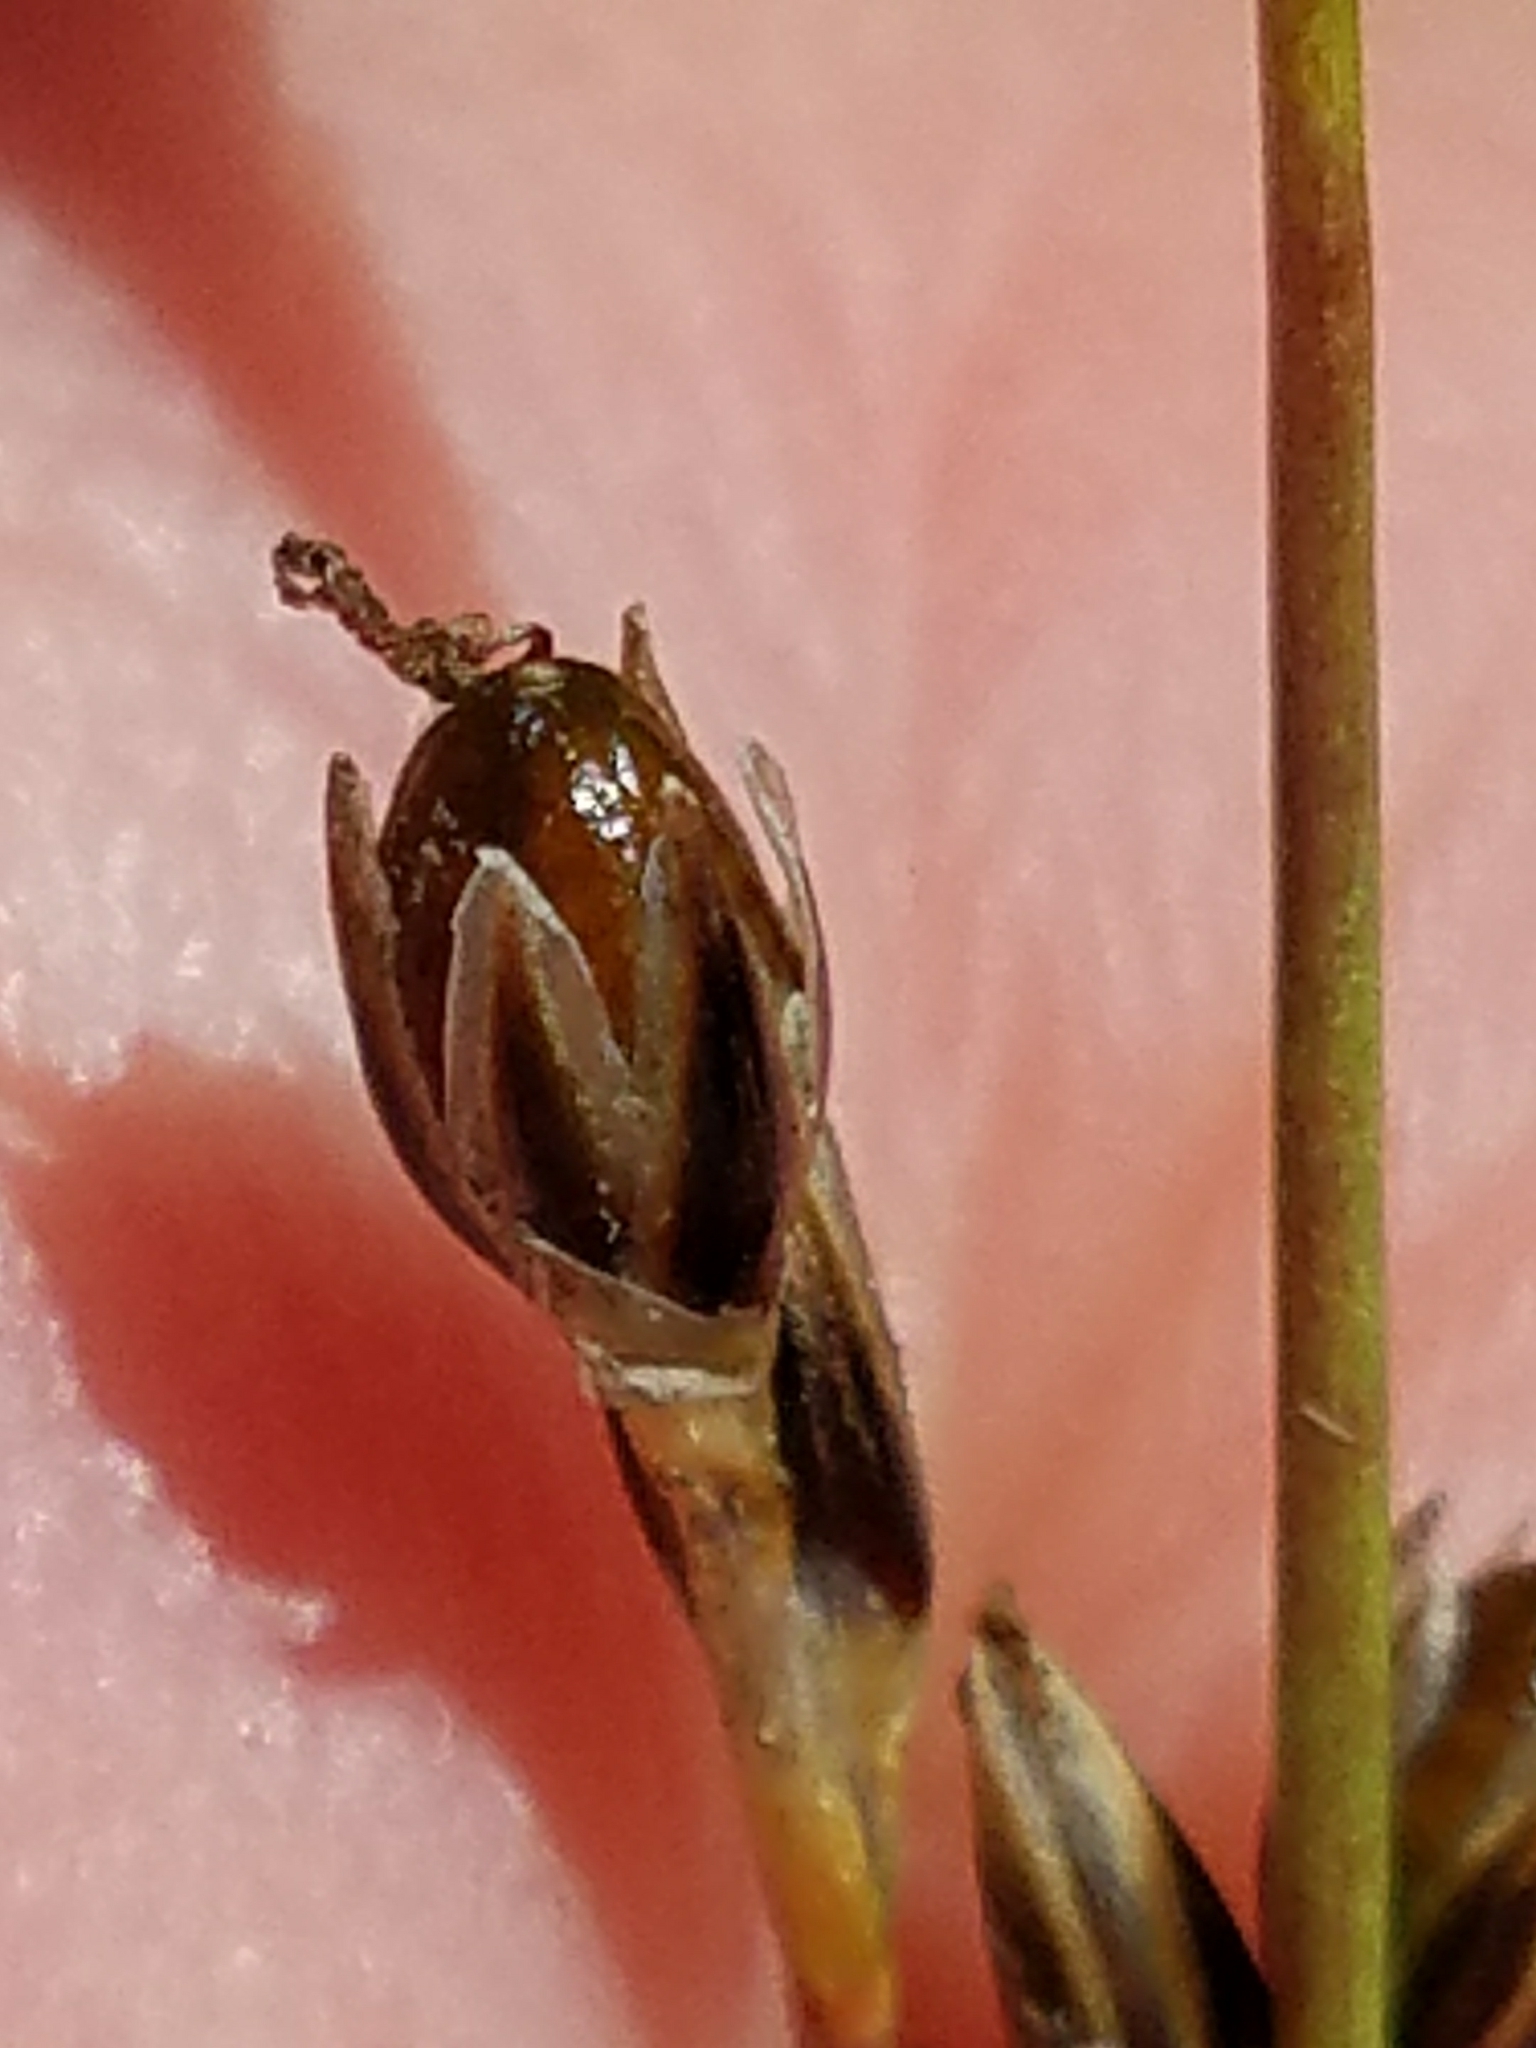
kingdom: Plantae
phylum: Tracheophyta
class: Liliopsida
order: Poales
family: Juncaceae
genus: Juncus
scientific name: Juncus squarrosus
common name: Heath rush
